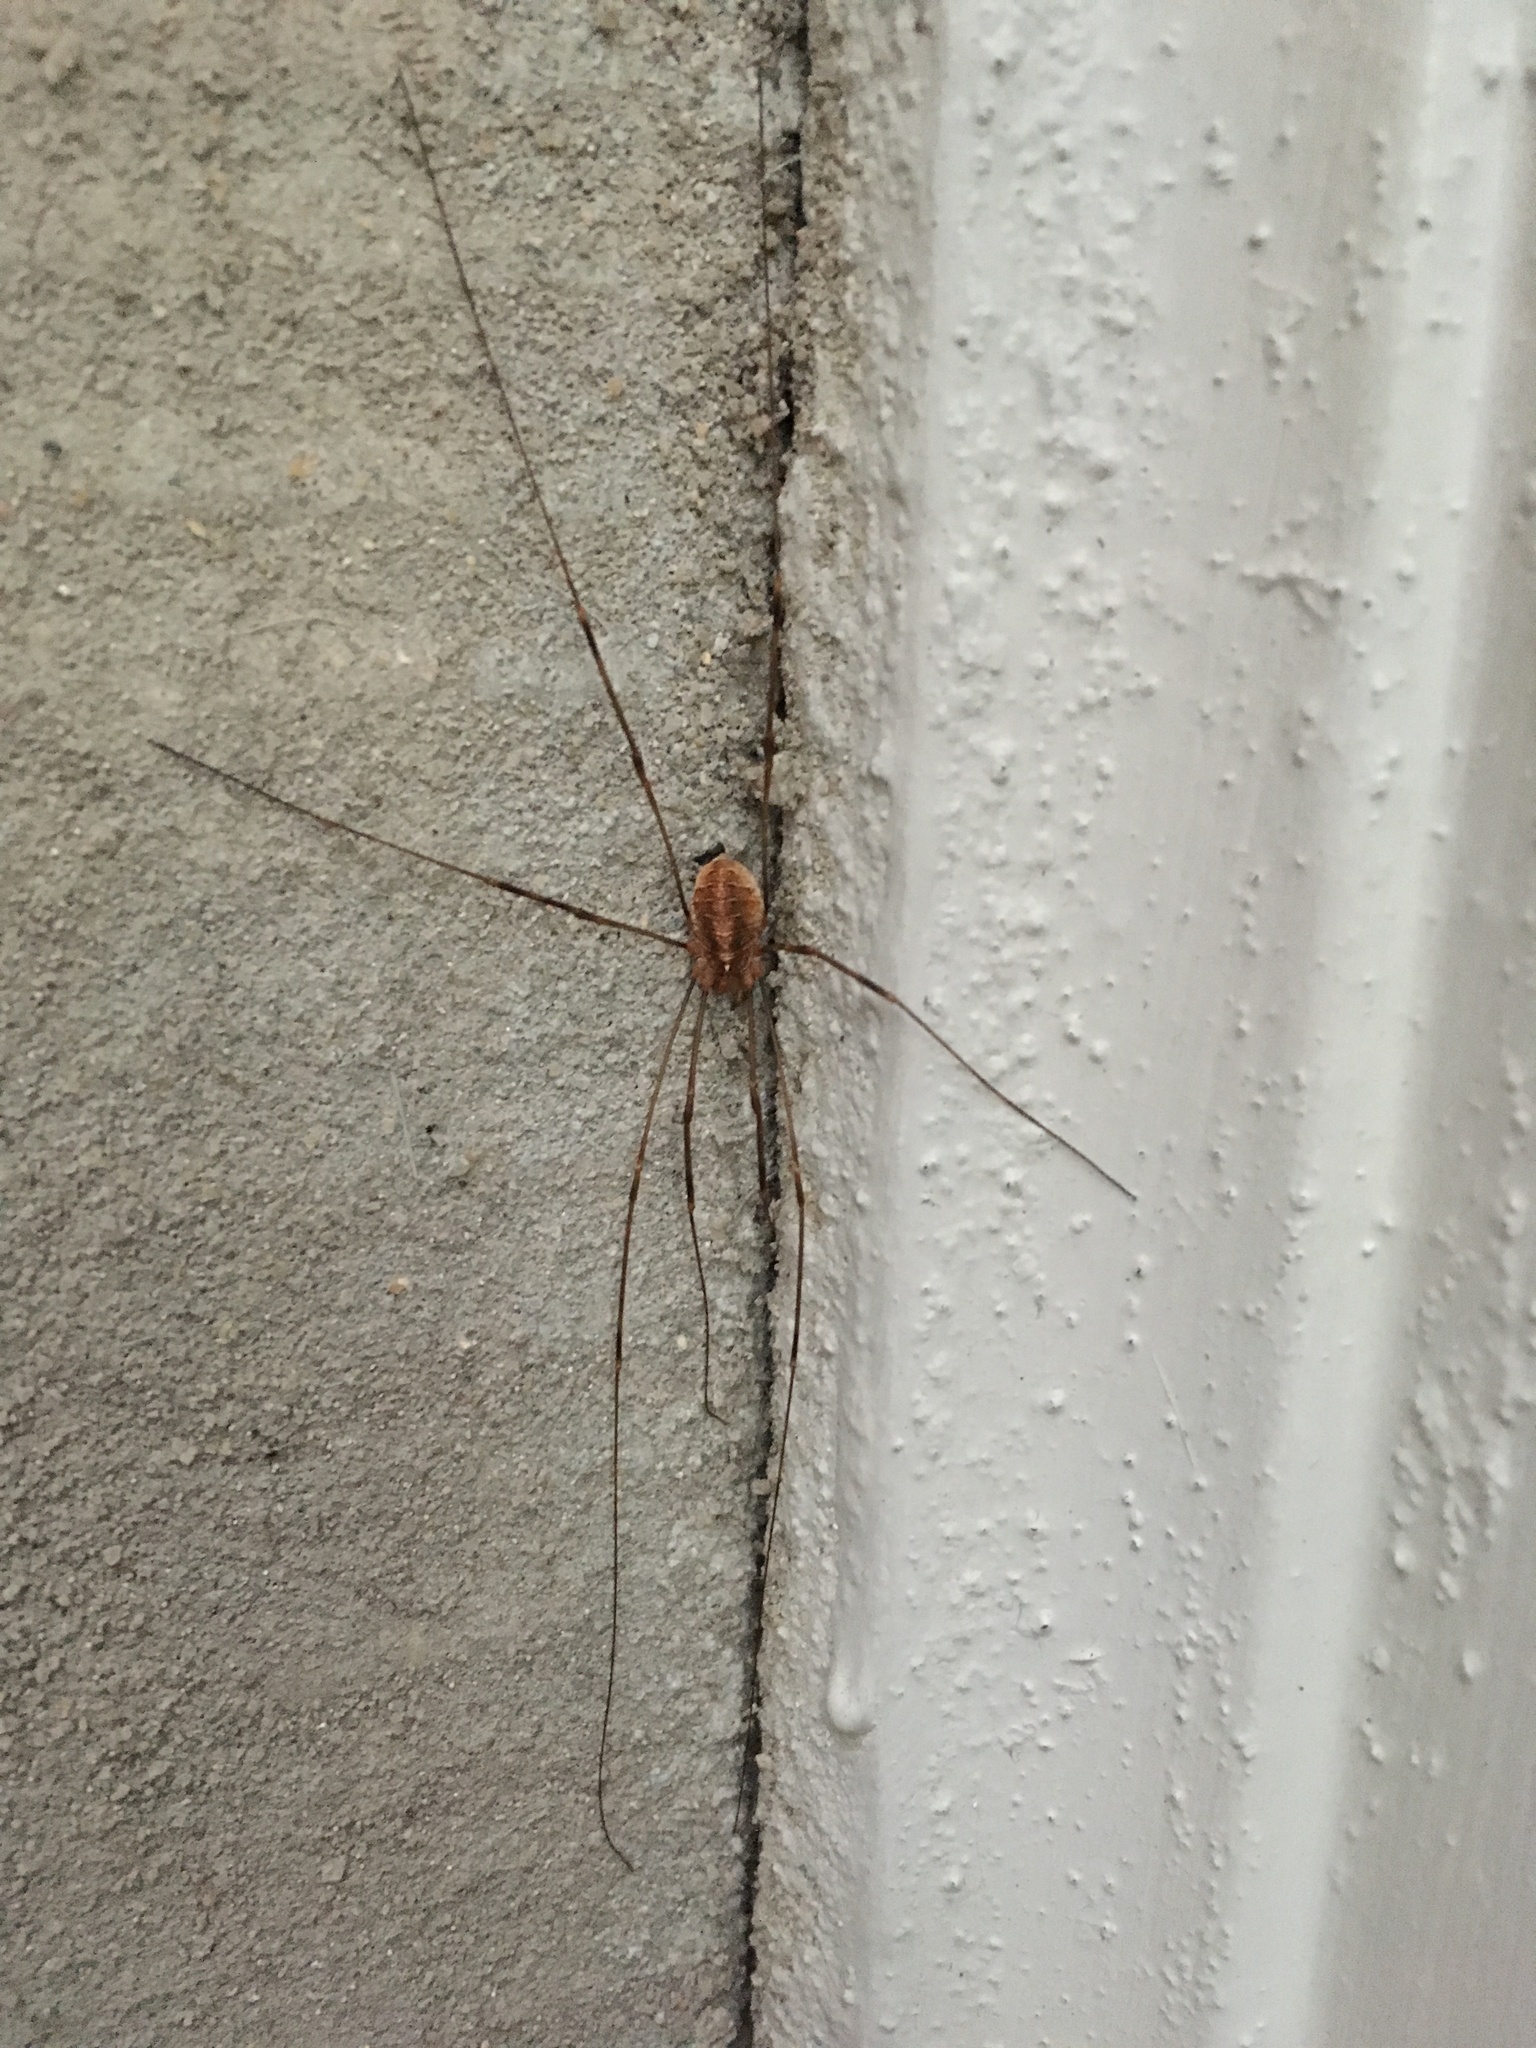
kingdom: Animalia
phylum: Arthropoda
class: Arachnida
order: Opiliones
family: Phalangiidae
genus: Opilio
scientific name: Opilio canestrinii
